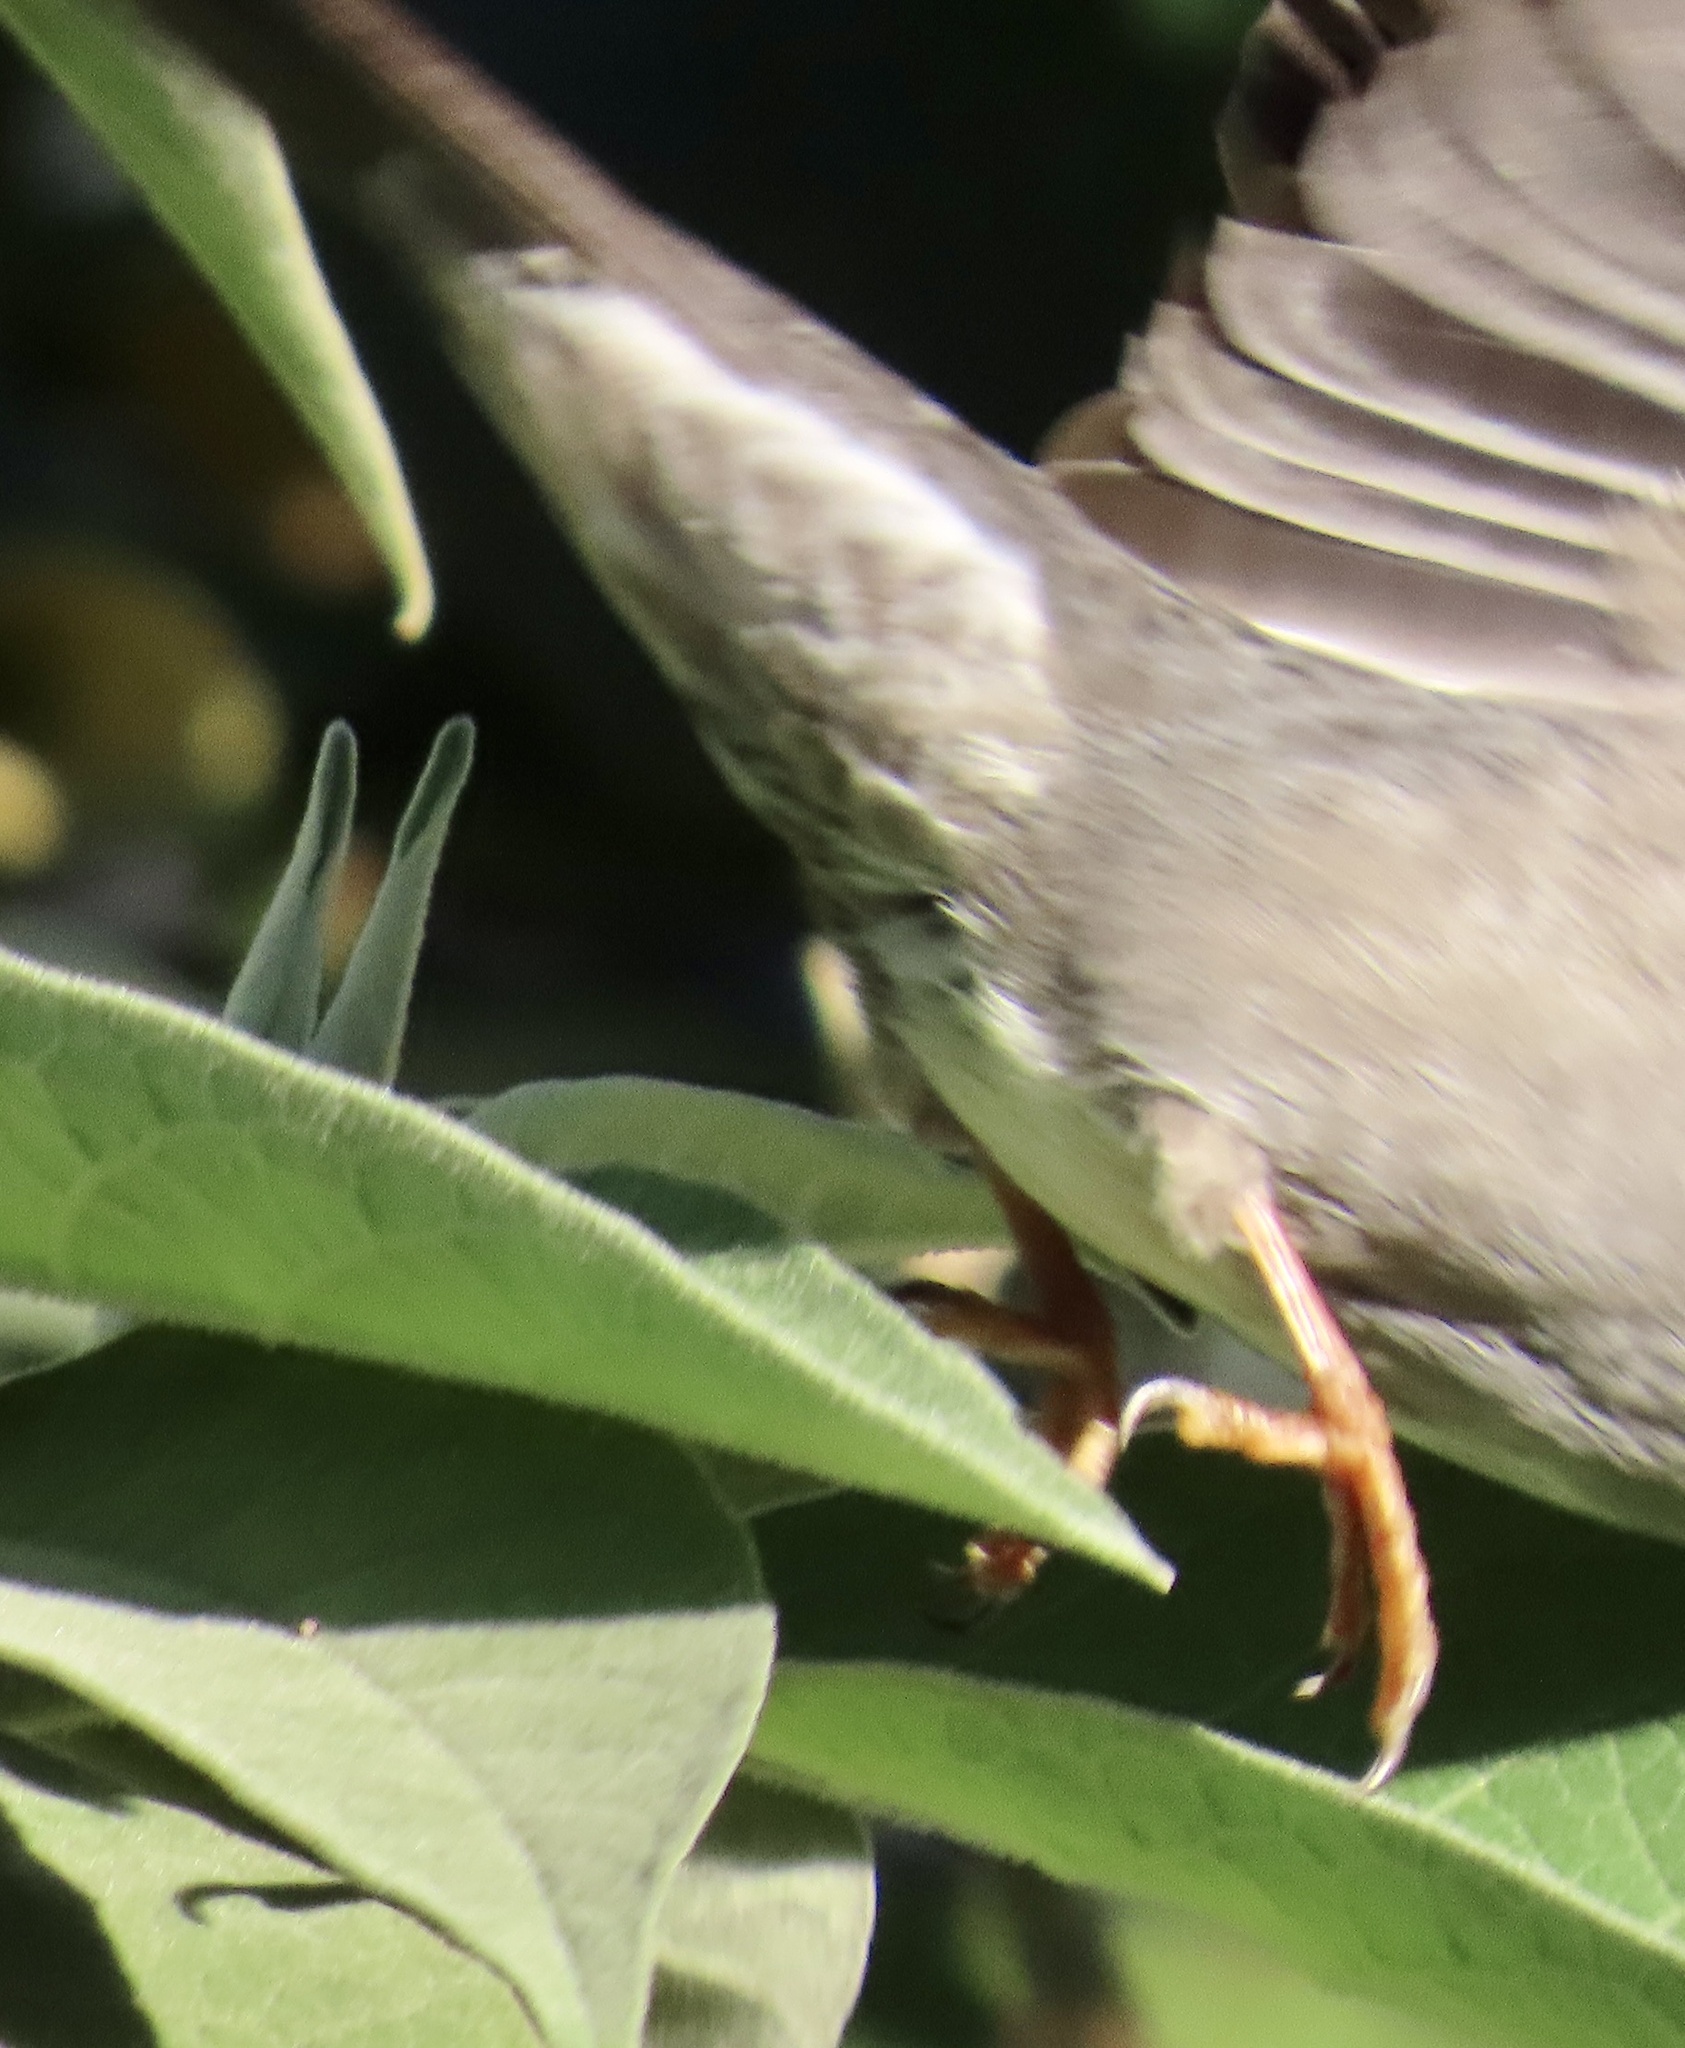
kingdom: Animalia
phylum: Chordata
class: Aves
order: Passeriformes
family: Pycnonotidae
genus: Hypsipetes
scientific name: Hypsipetes madagascariensis
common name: Malagasy bulbul
